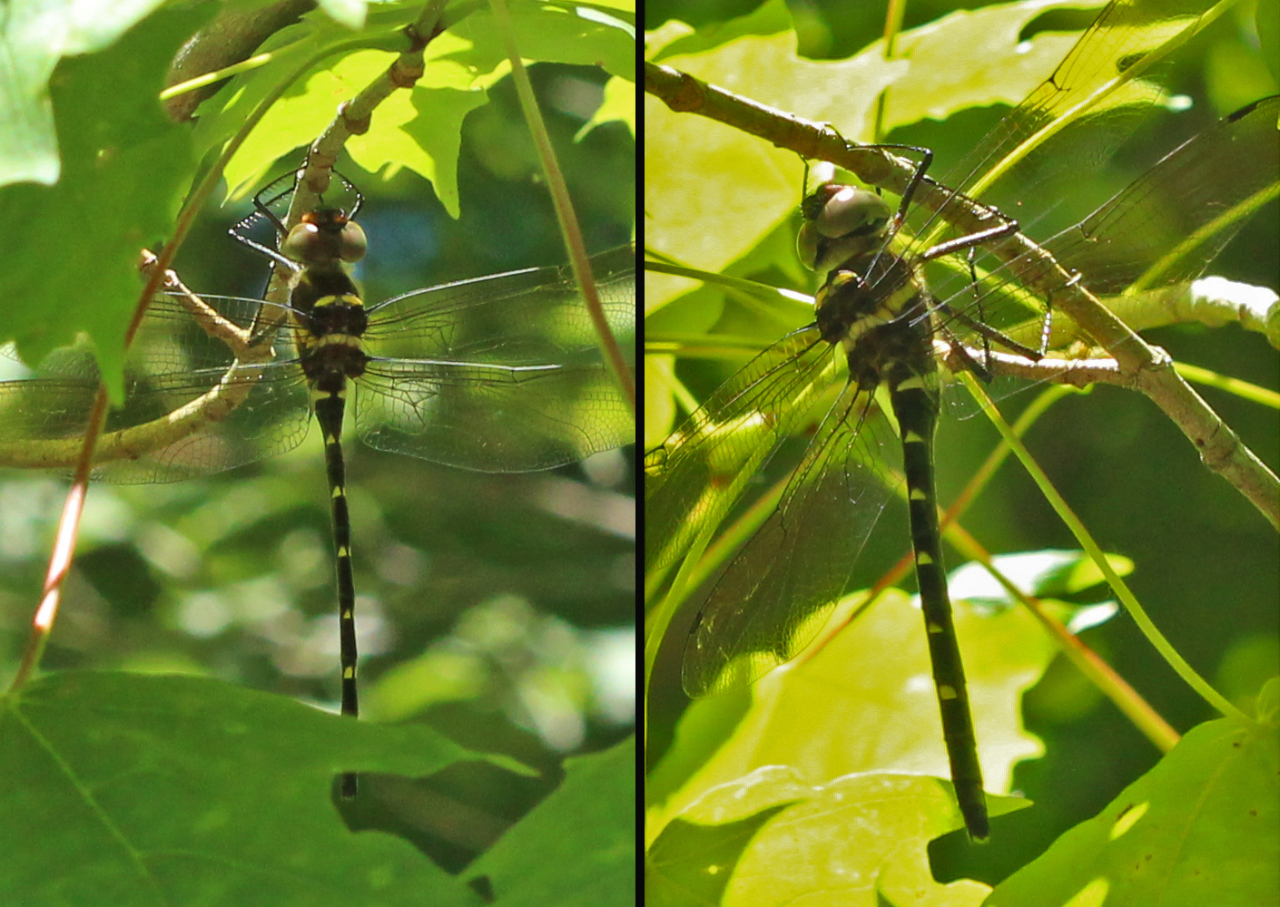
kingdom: Animalia
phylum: Arthropoda
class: Insecta
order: Odonata
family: Macromiidae
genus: Macromia
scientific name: Macromia taeniolata
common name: Royal river cruiser
